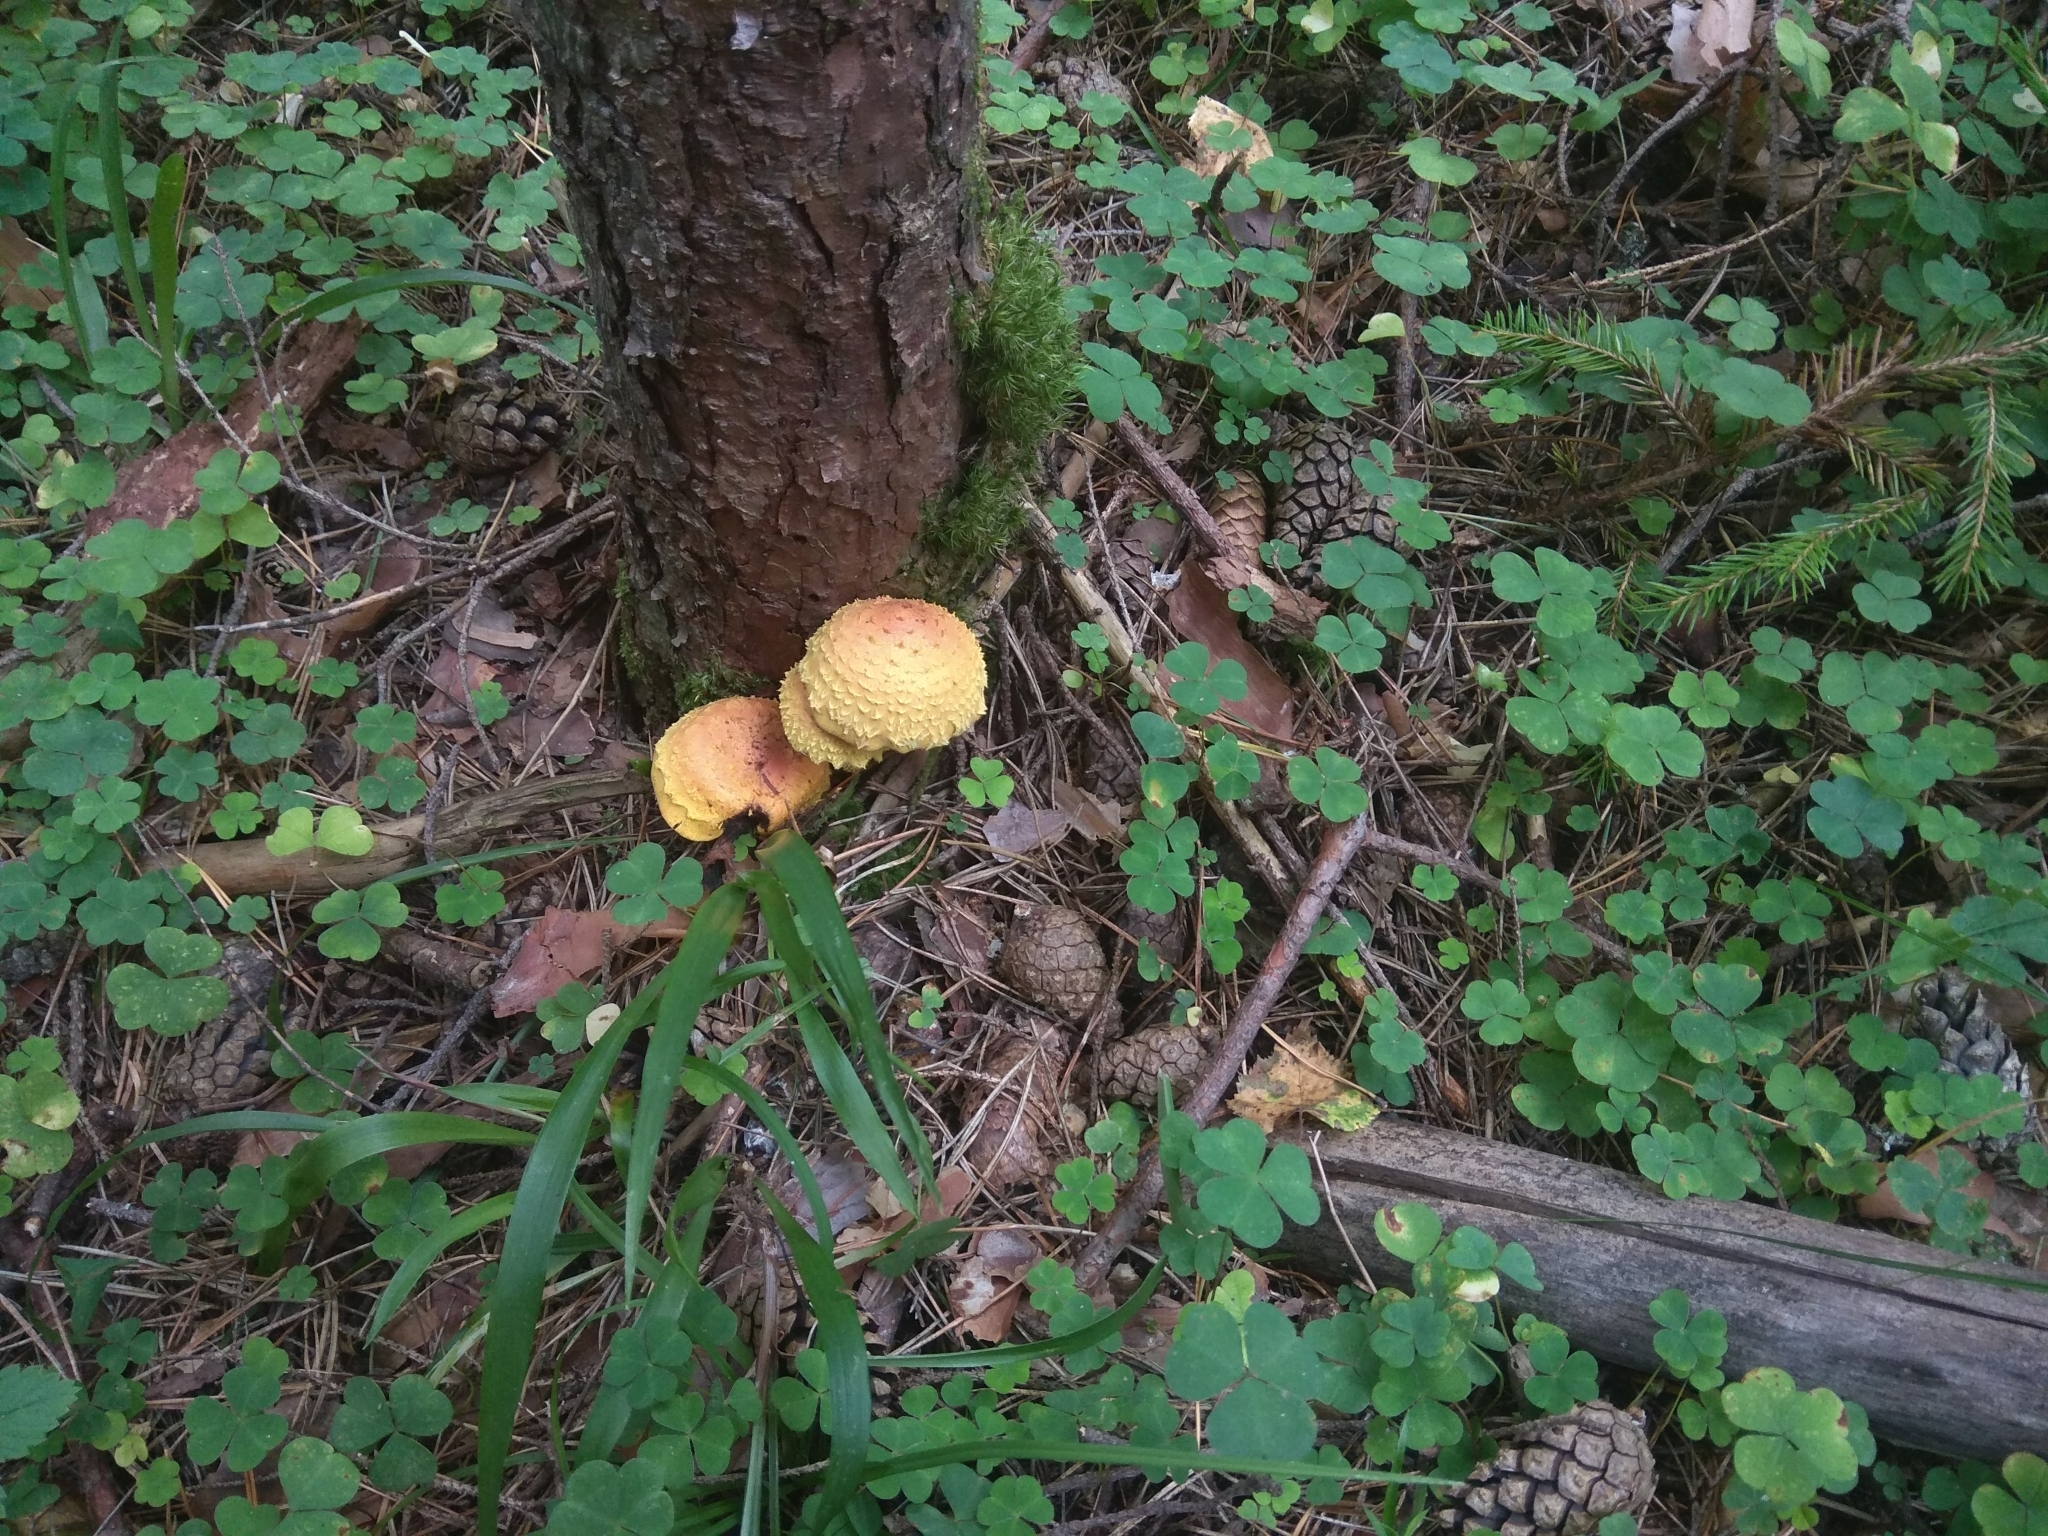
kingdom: Fungi
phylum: Basidiomycota
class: Agaricomycetes
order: Agaricales
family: Strophariaceae
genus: Pholiota
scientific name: Pholiota flammans
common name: Flaming scalycap
